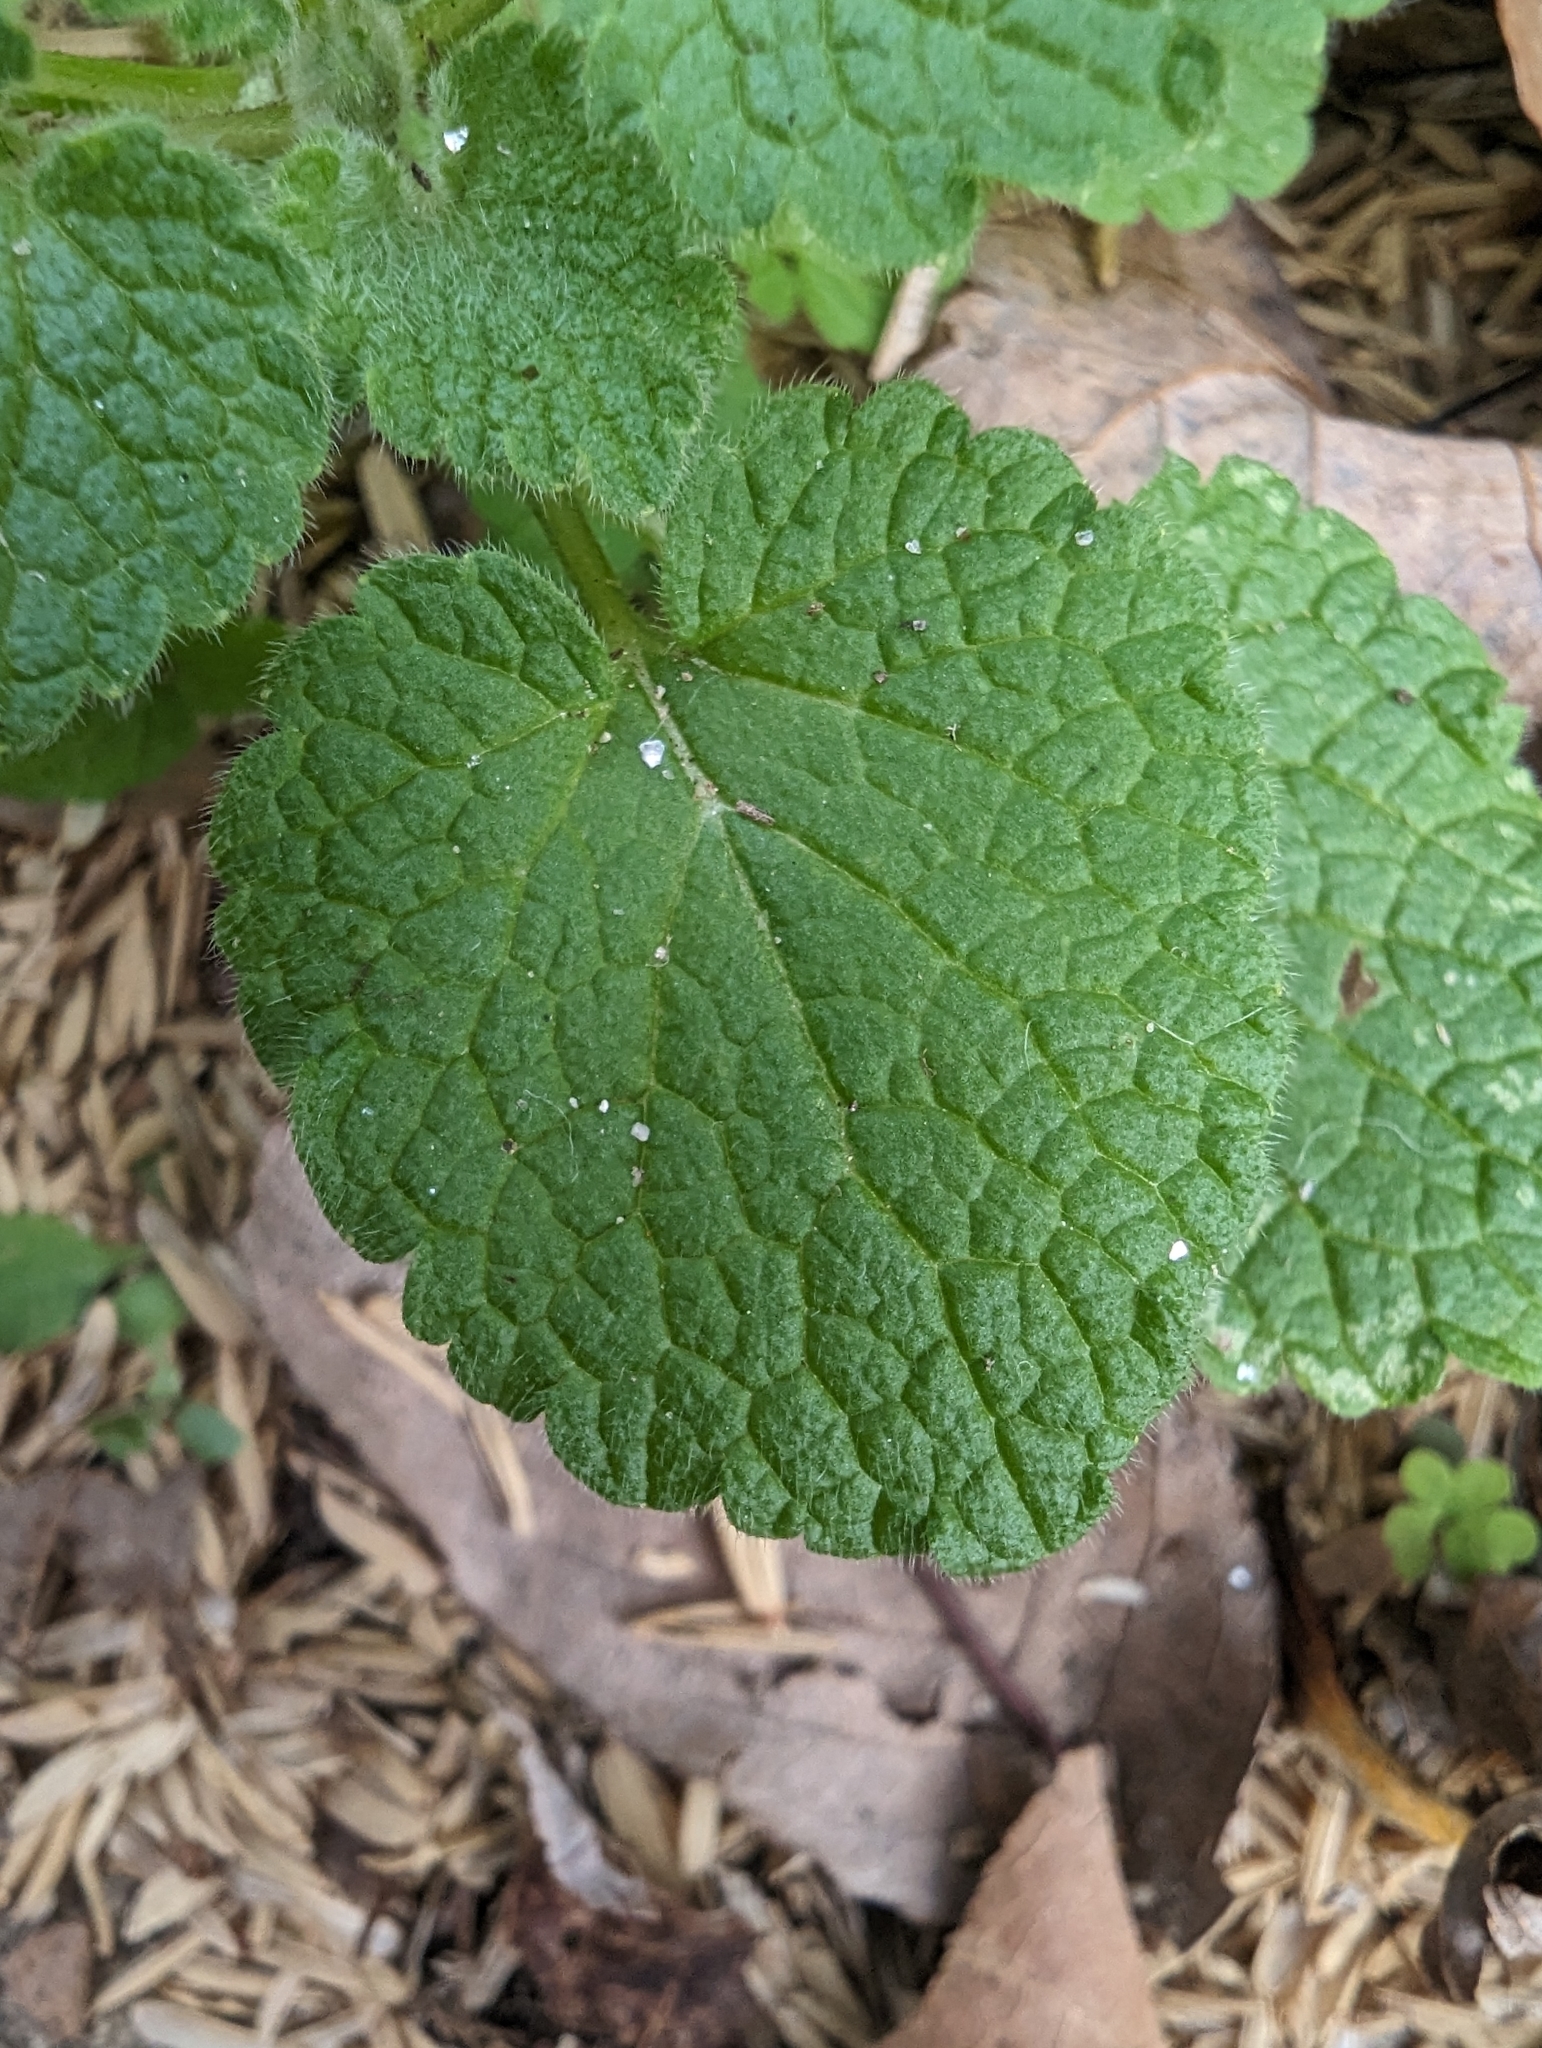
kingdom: Plantae
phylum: Tracheophyta
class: Magnoliopsida
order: Lamiales
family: Lamiaceae
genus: Lamium
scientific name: Lamium purpureum
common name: Red dead-nettle
